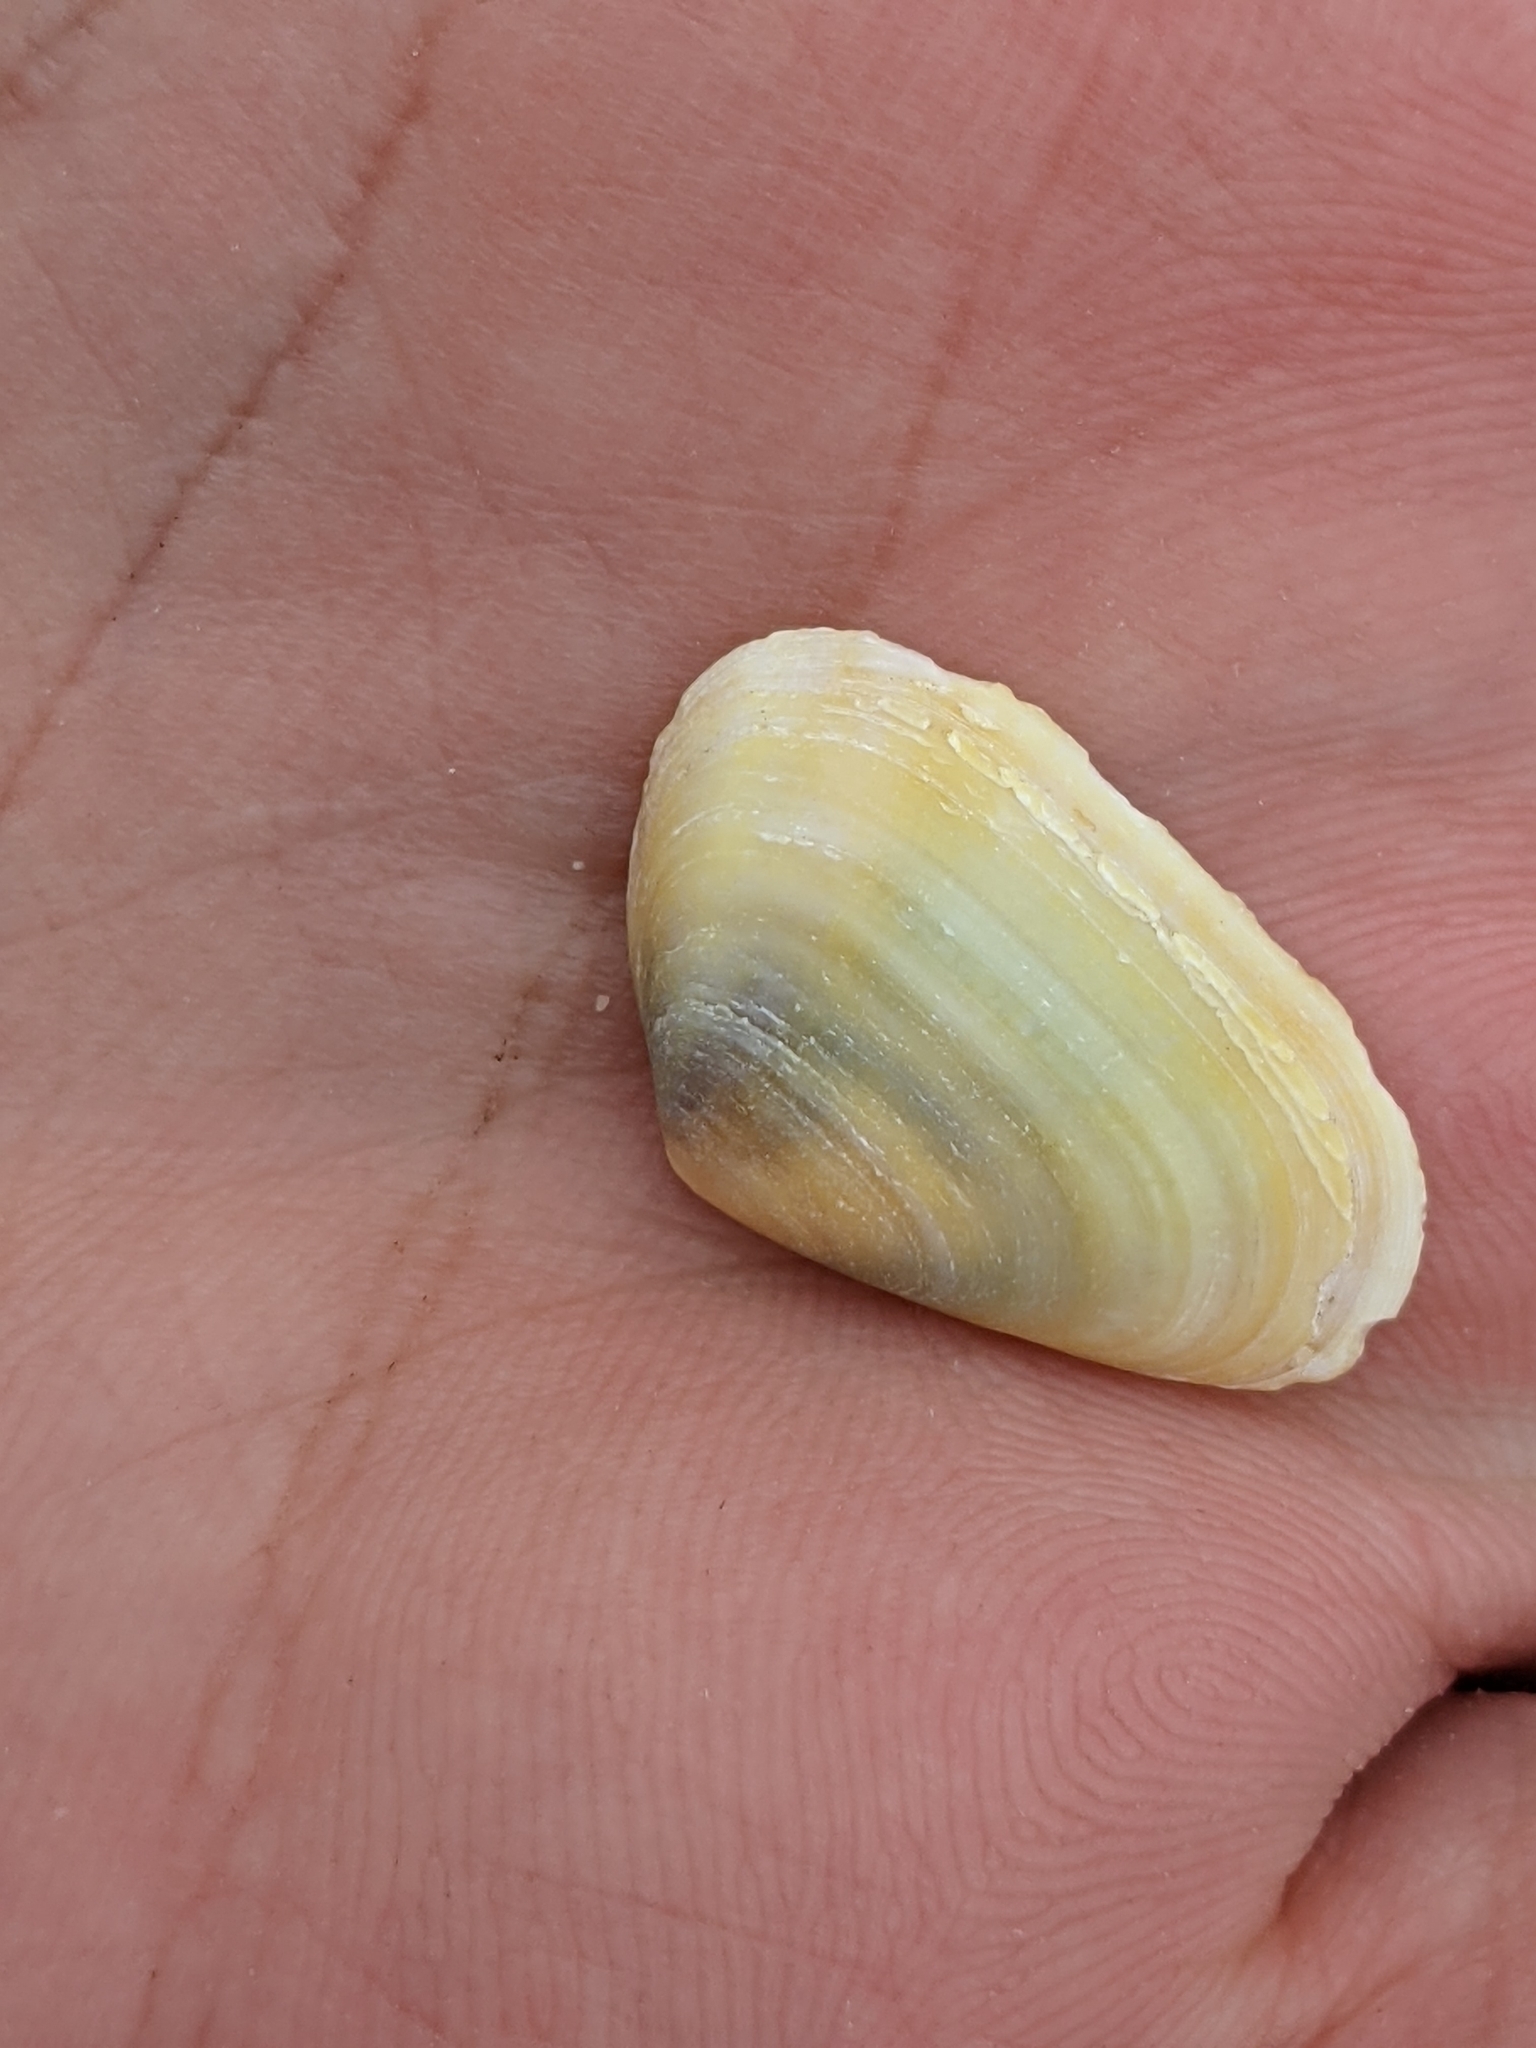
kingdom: Animalia
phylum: Mollusca
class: Bivalvia
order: Venerida
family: Mesodesmatidae
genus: Donacilla
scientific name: Donacilla cornea
